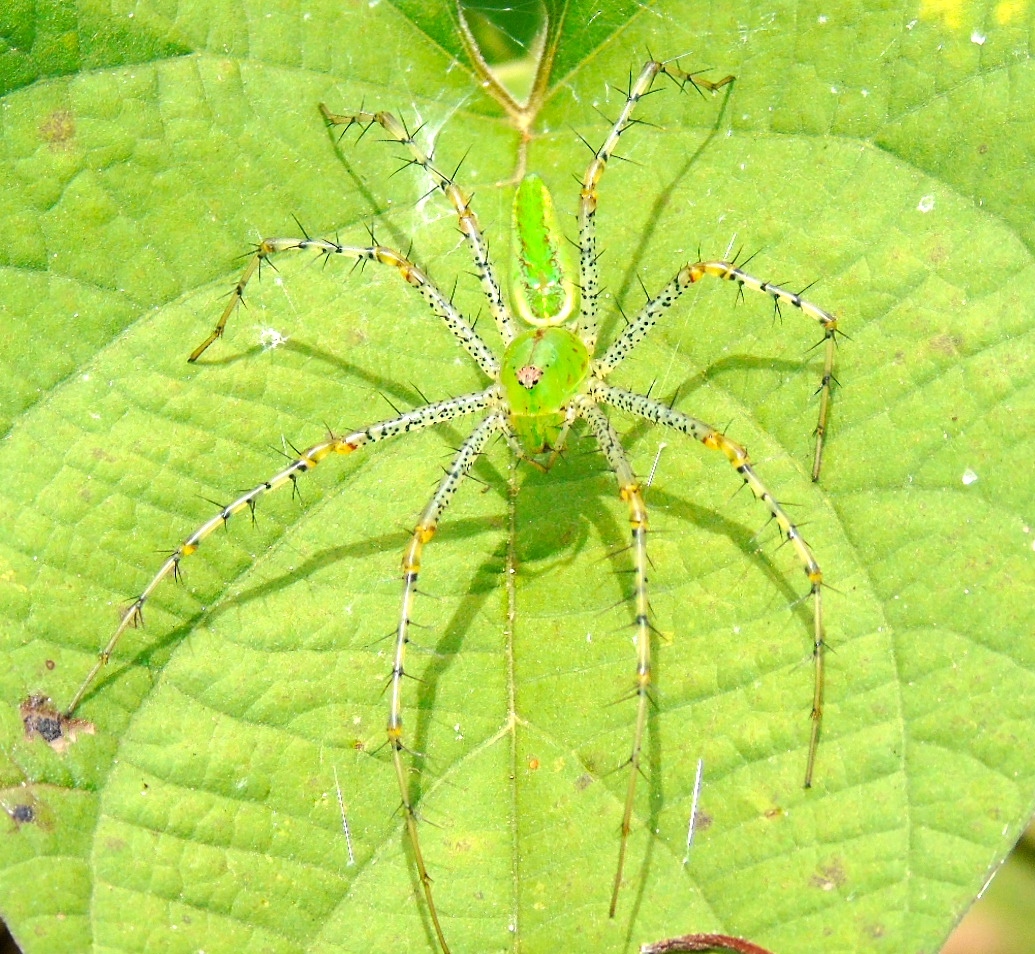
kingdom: Animalia
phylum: Arthropoda
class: Arachnida
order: Araneae
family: Oxyopidae
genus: Peucetia
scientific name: Peucetia viridans
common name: Lynx spiders
